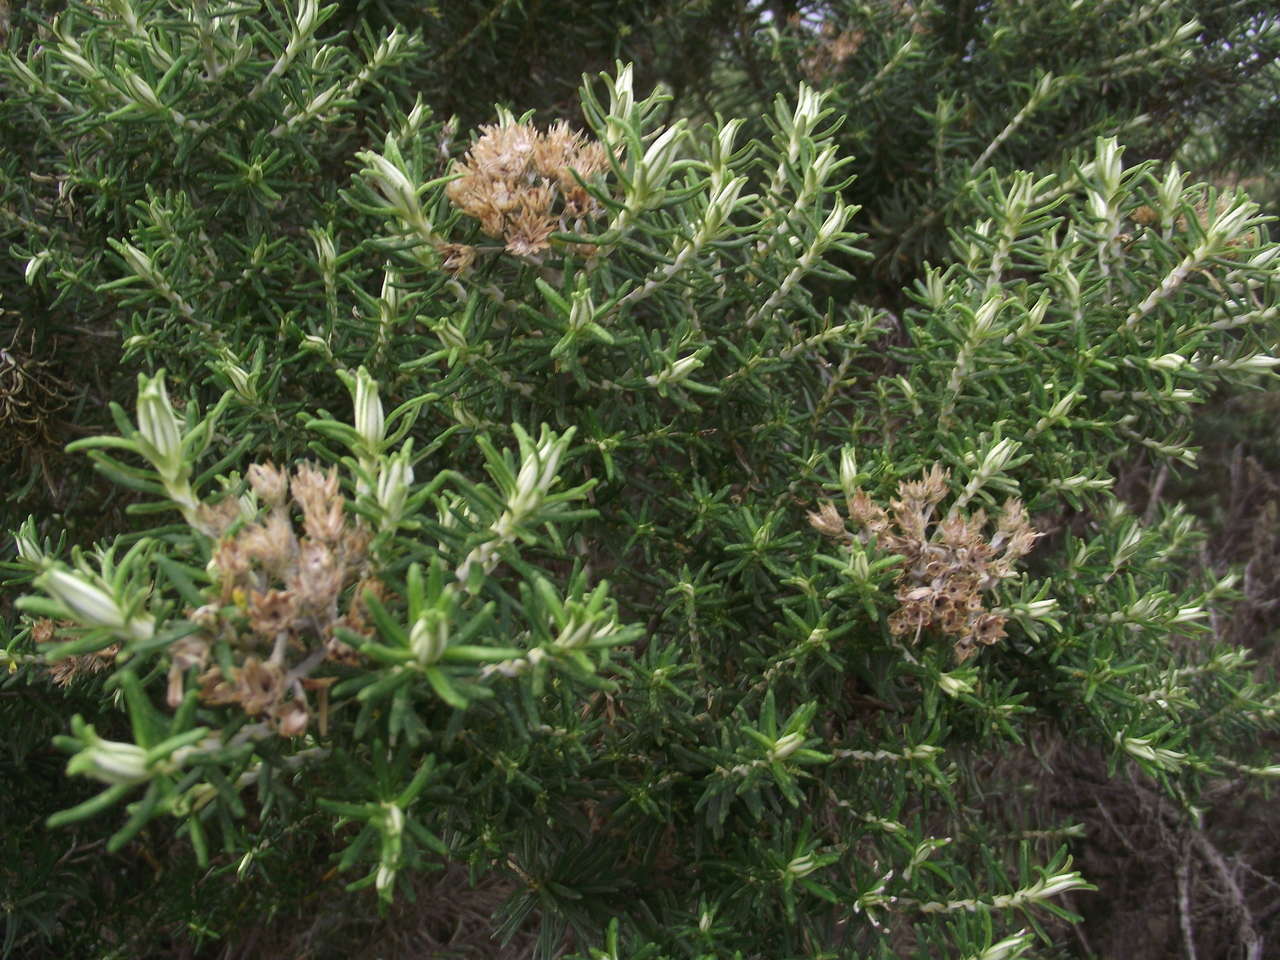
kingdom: Plantae
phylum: Tracheophyta
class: Magnoliopsida
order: Asterales
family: Asteraceae
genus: Olearia
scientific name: Olearia axillaris
